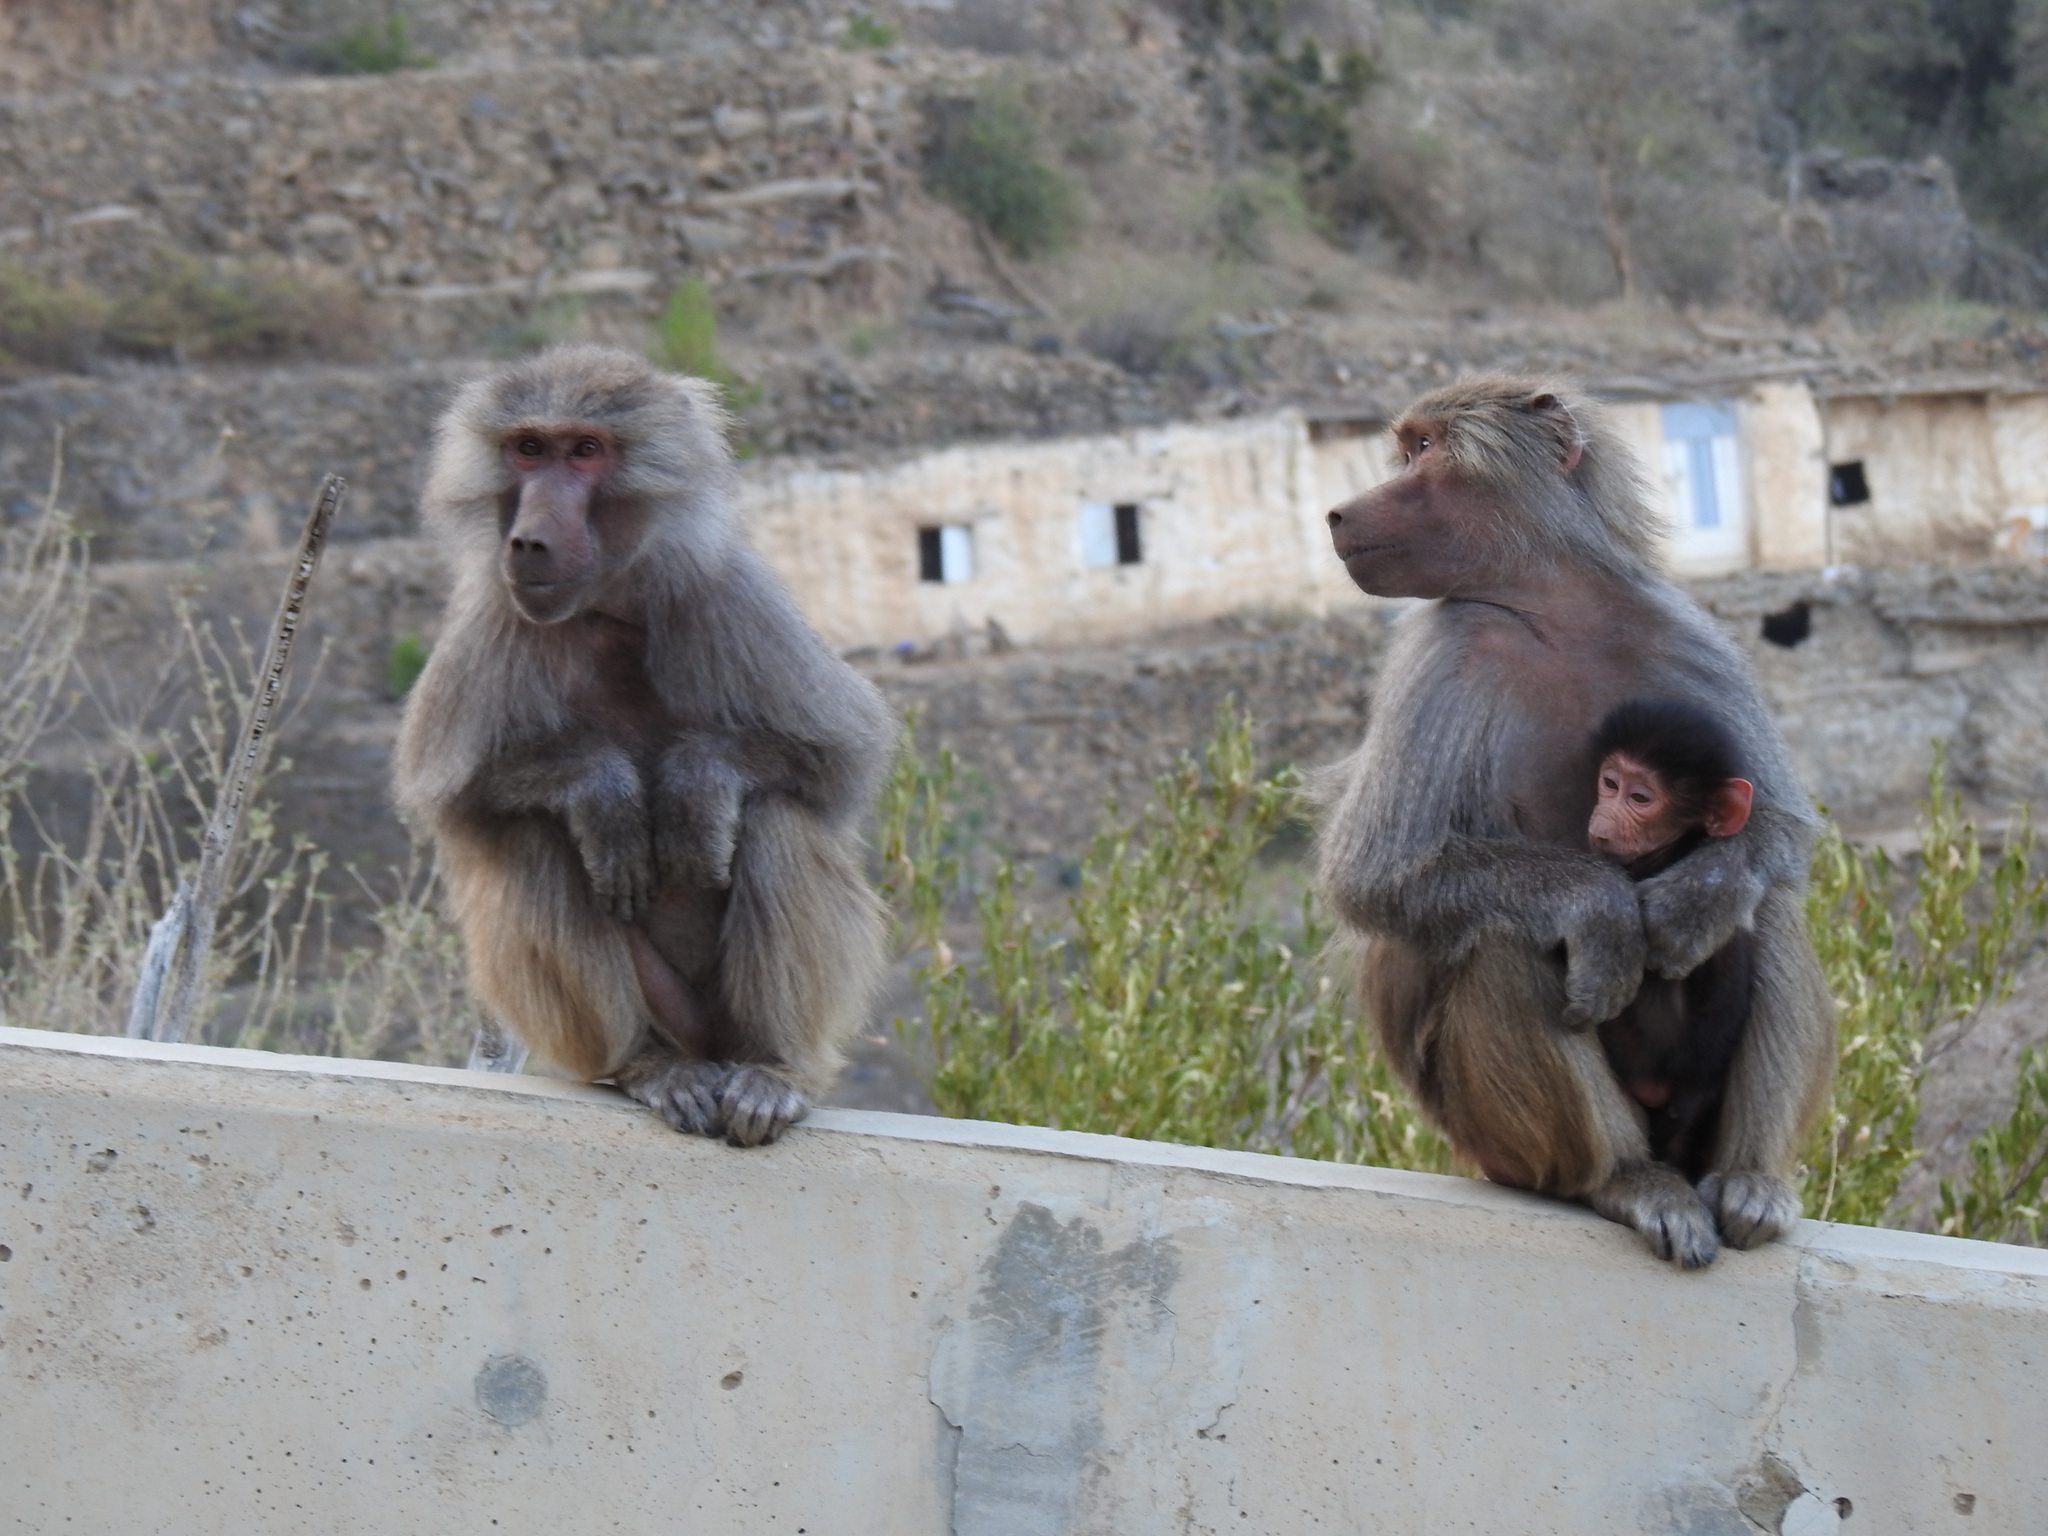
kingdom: Animalia
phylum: Chordata
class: Mammalia
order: Primates
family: Cercopithecidae
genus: Papio
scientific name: Papio hamadryas
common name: Hamadryas baboon
